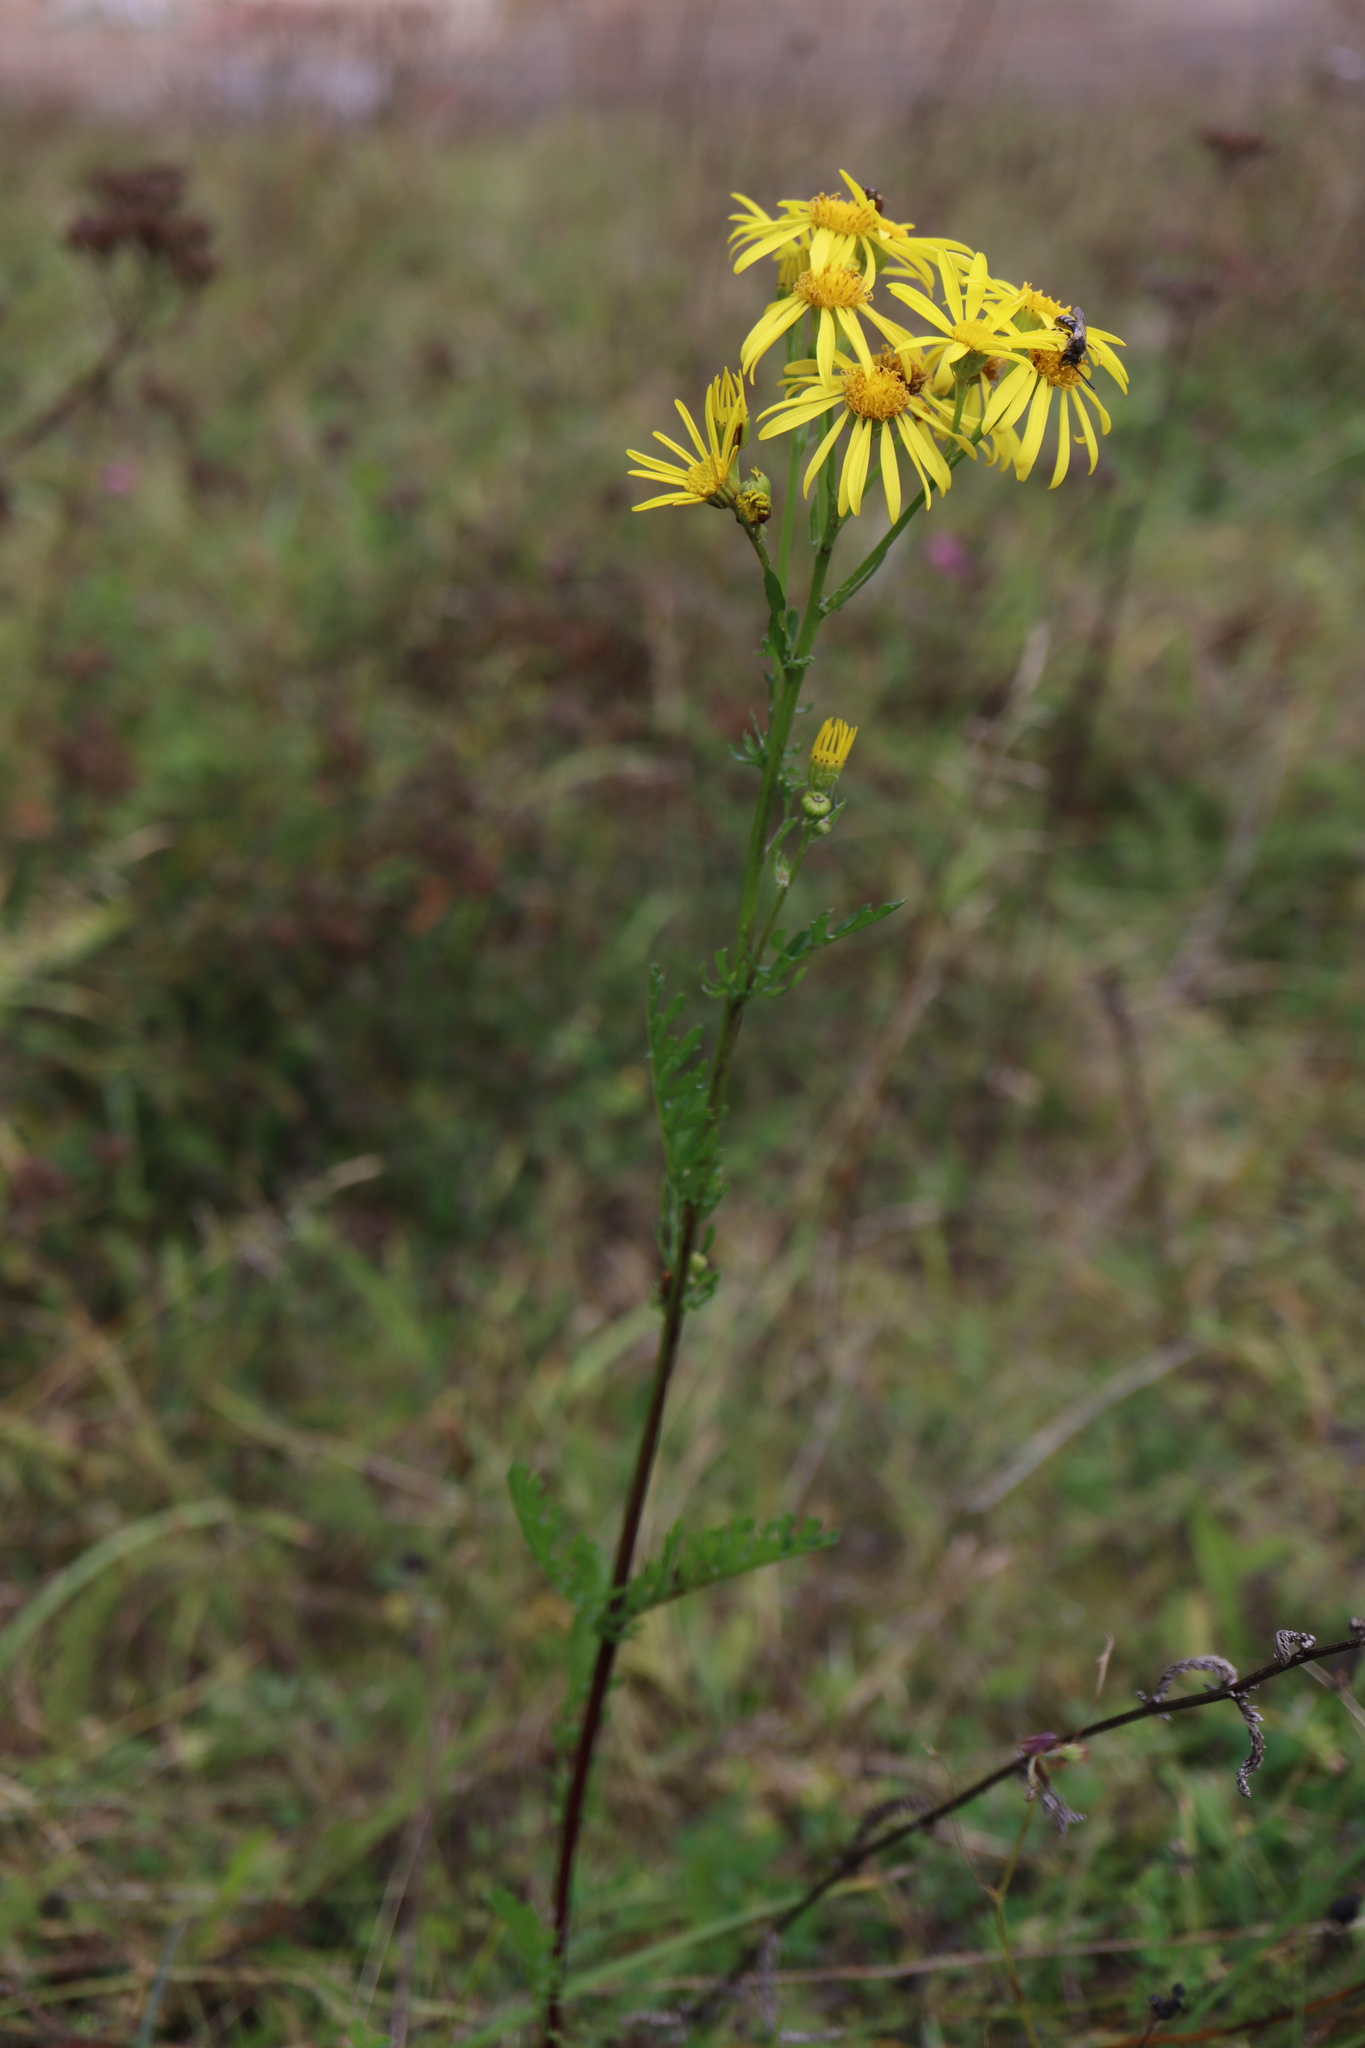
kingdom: Plantae
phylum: Tracheophyta
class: Magnoliopsida
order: Asterales
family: Asteraceae
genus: Jacobaea
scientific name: Jacobaea vulgaris
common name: Stinking willie
